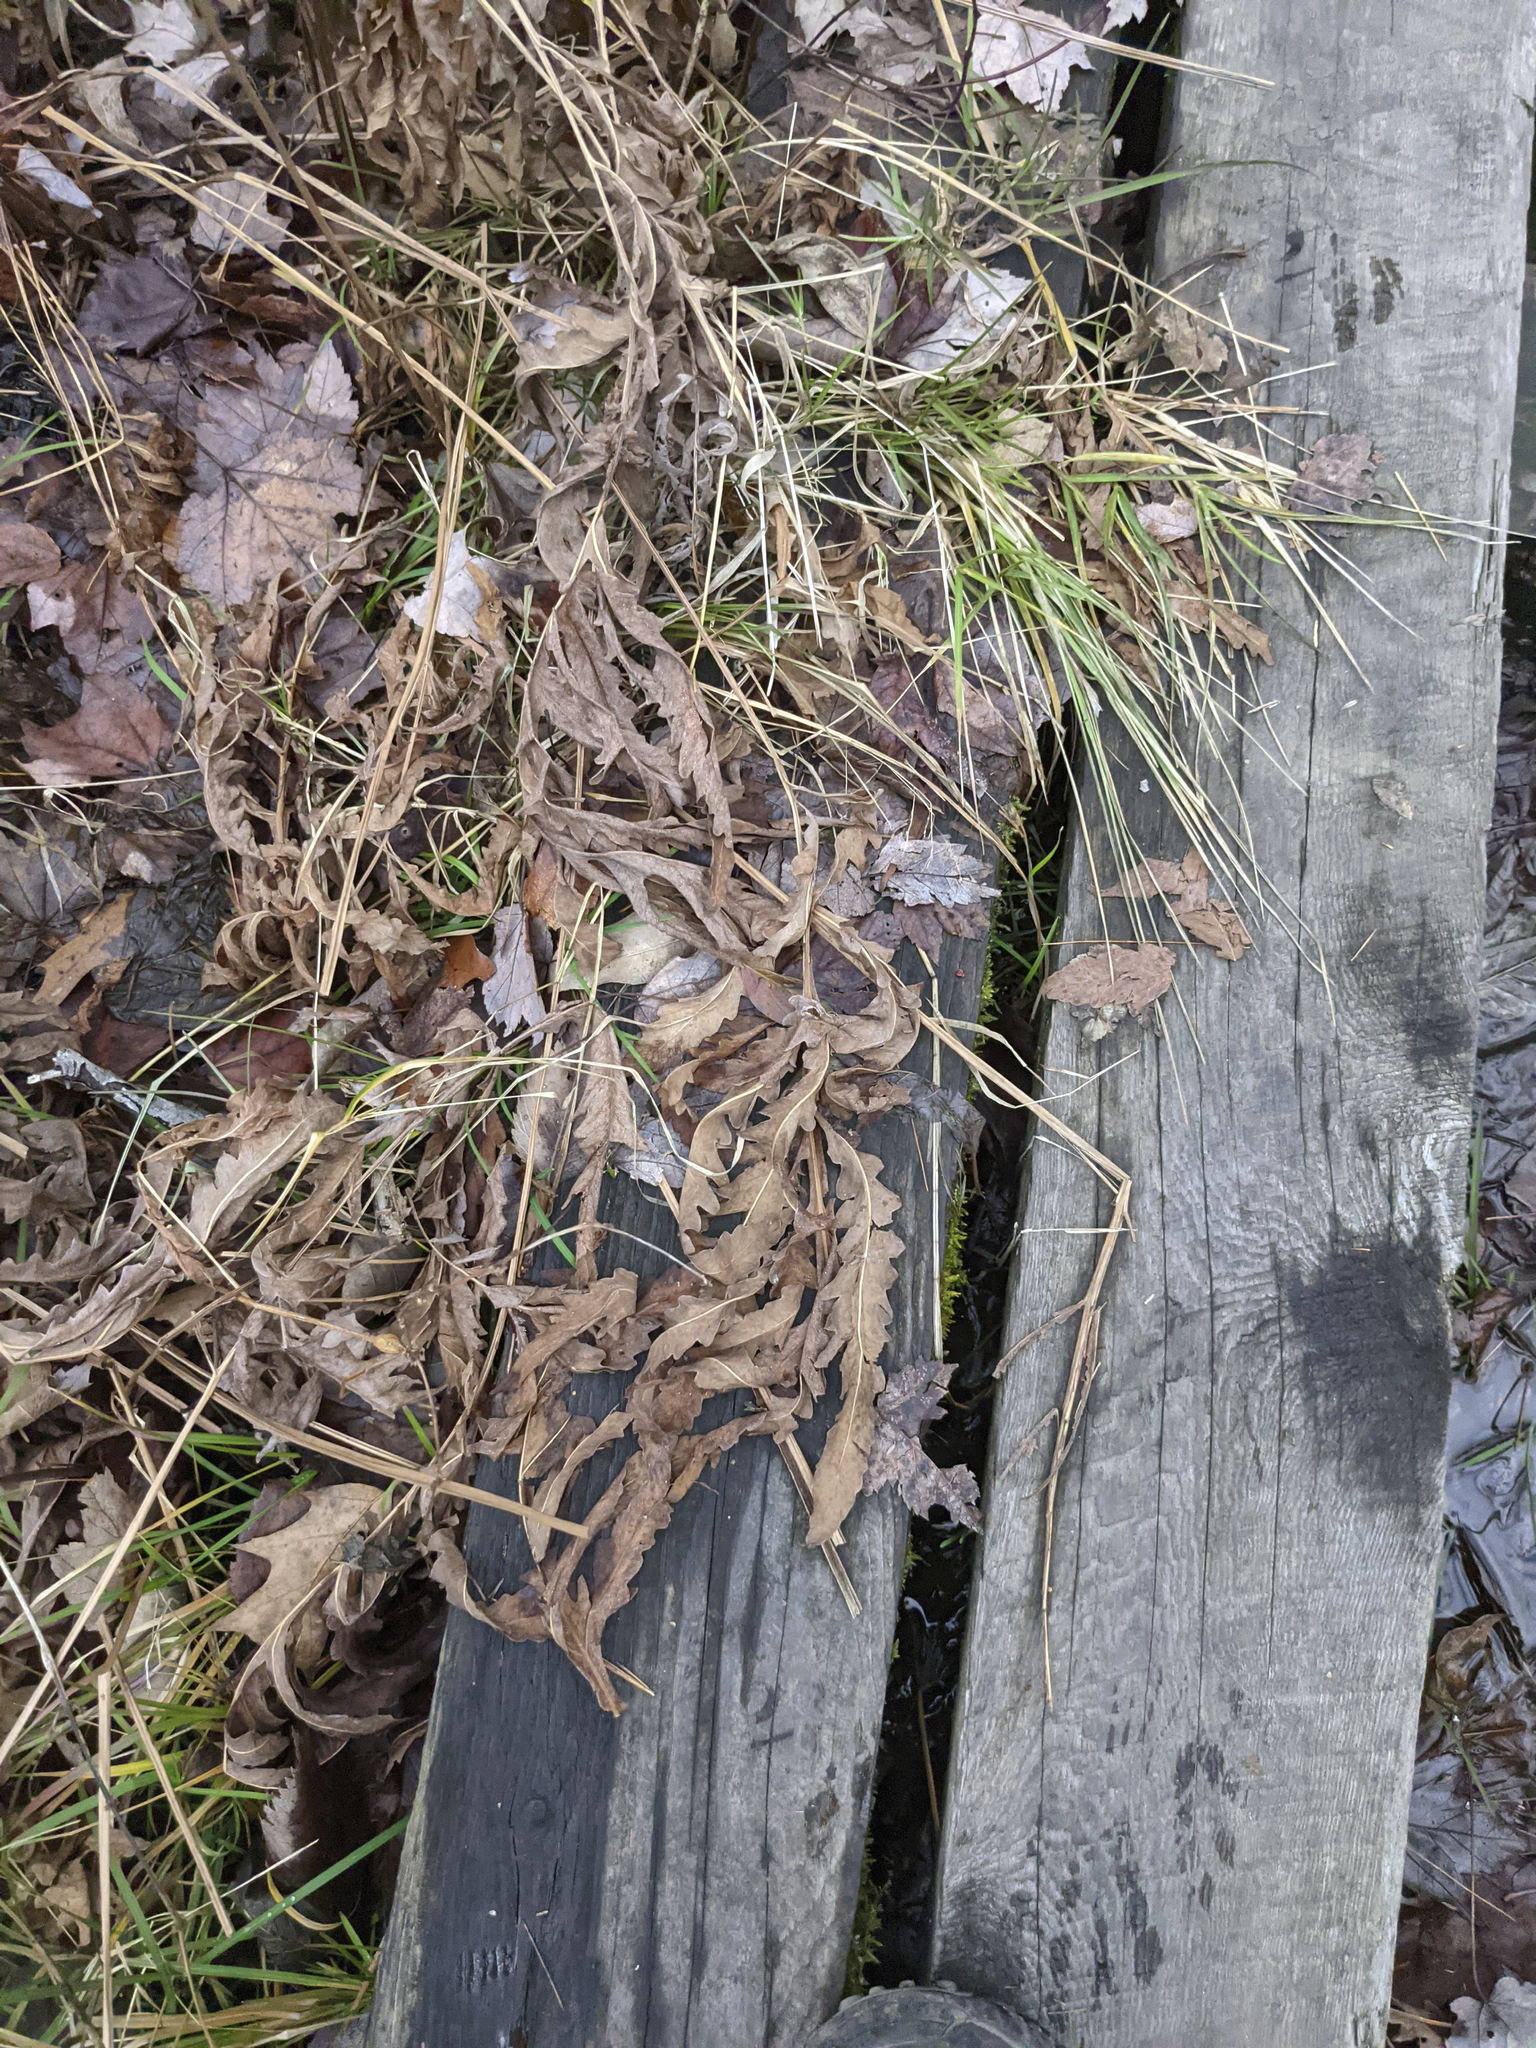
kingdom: Plantae
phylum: Tracheophyta
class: Polypodiopsida
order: Polypodiales
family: Onocleaceae
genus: Onoclea
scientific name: Onoclea sensibilis
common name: Sensitive fern
